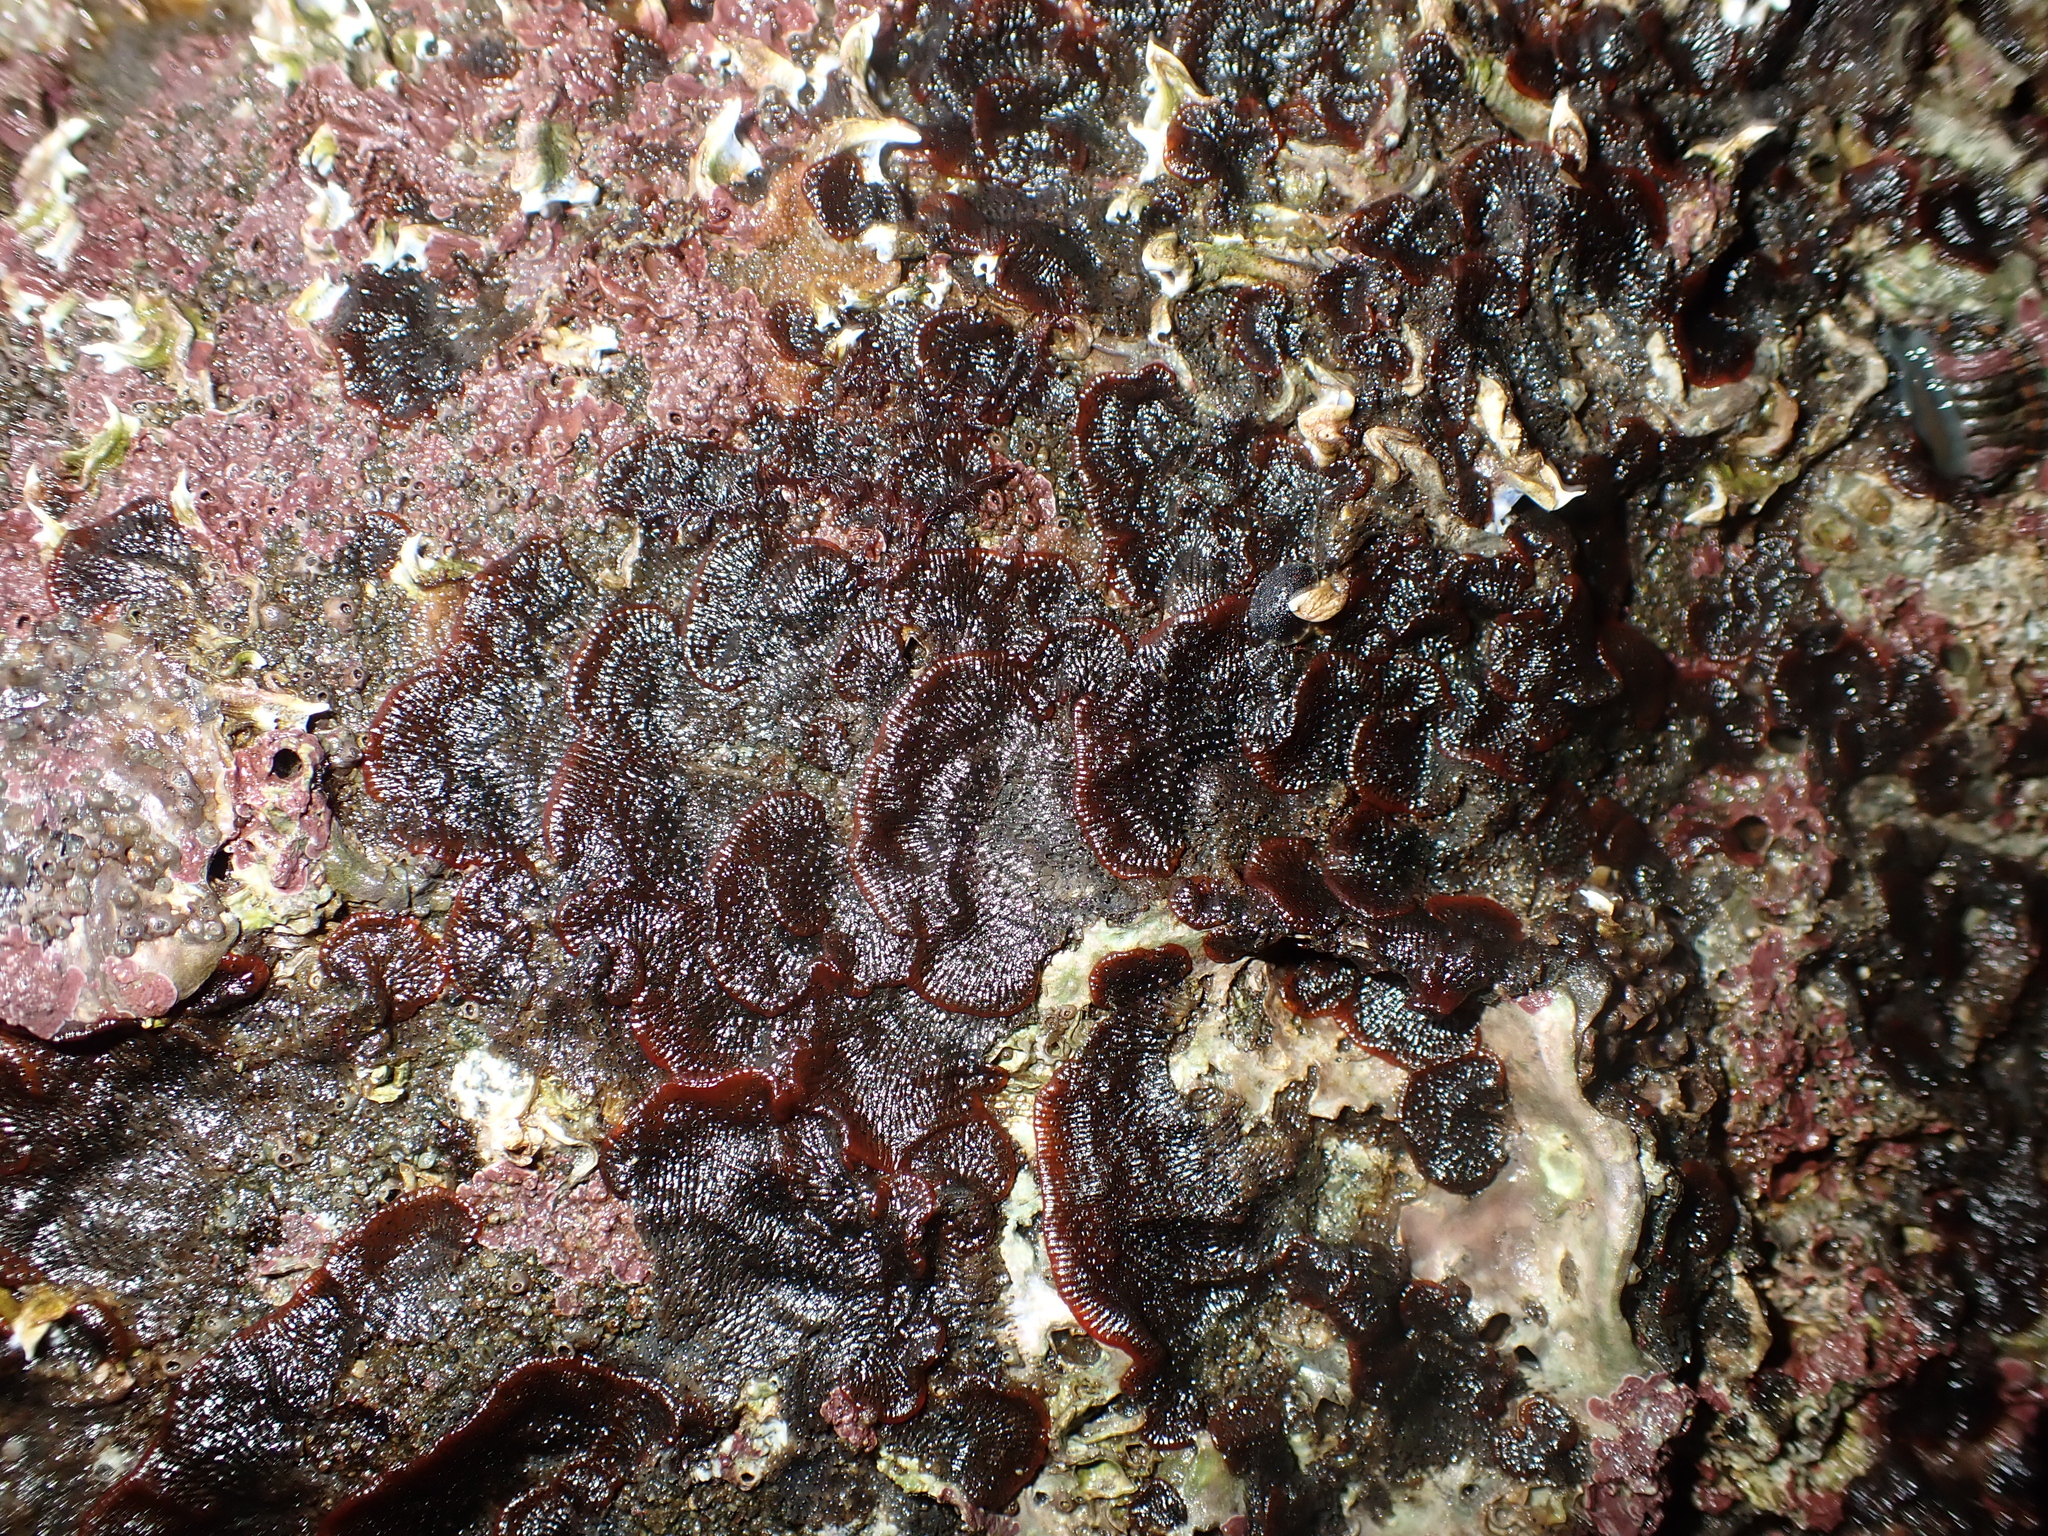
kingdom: Animalia
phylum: Bryozoa
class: Gymnolaemata
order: Cheilostomatida
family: Watersiporidae
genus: Watersipora
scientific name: Watersipora subatra
